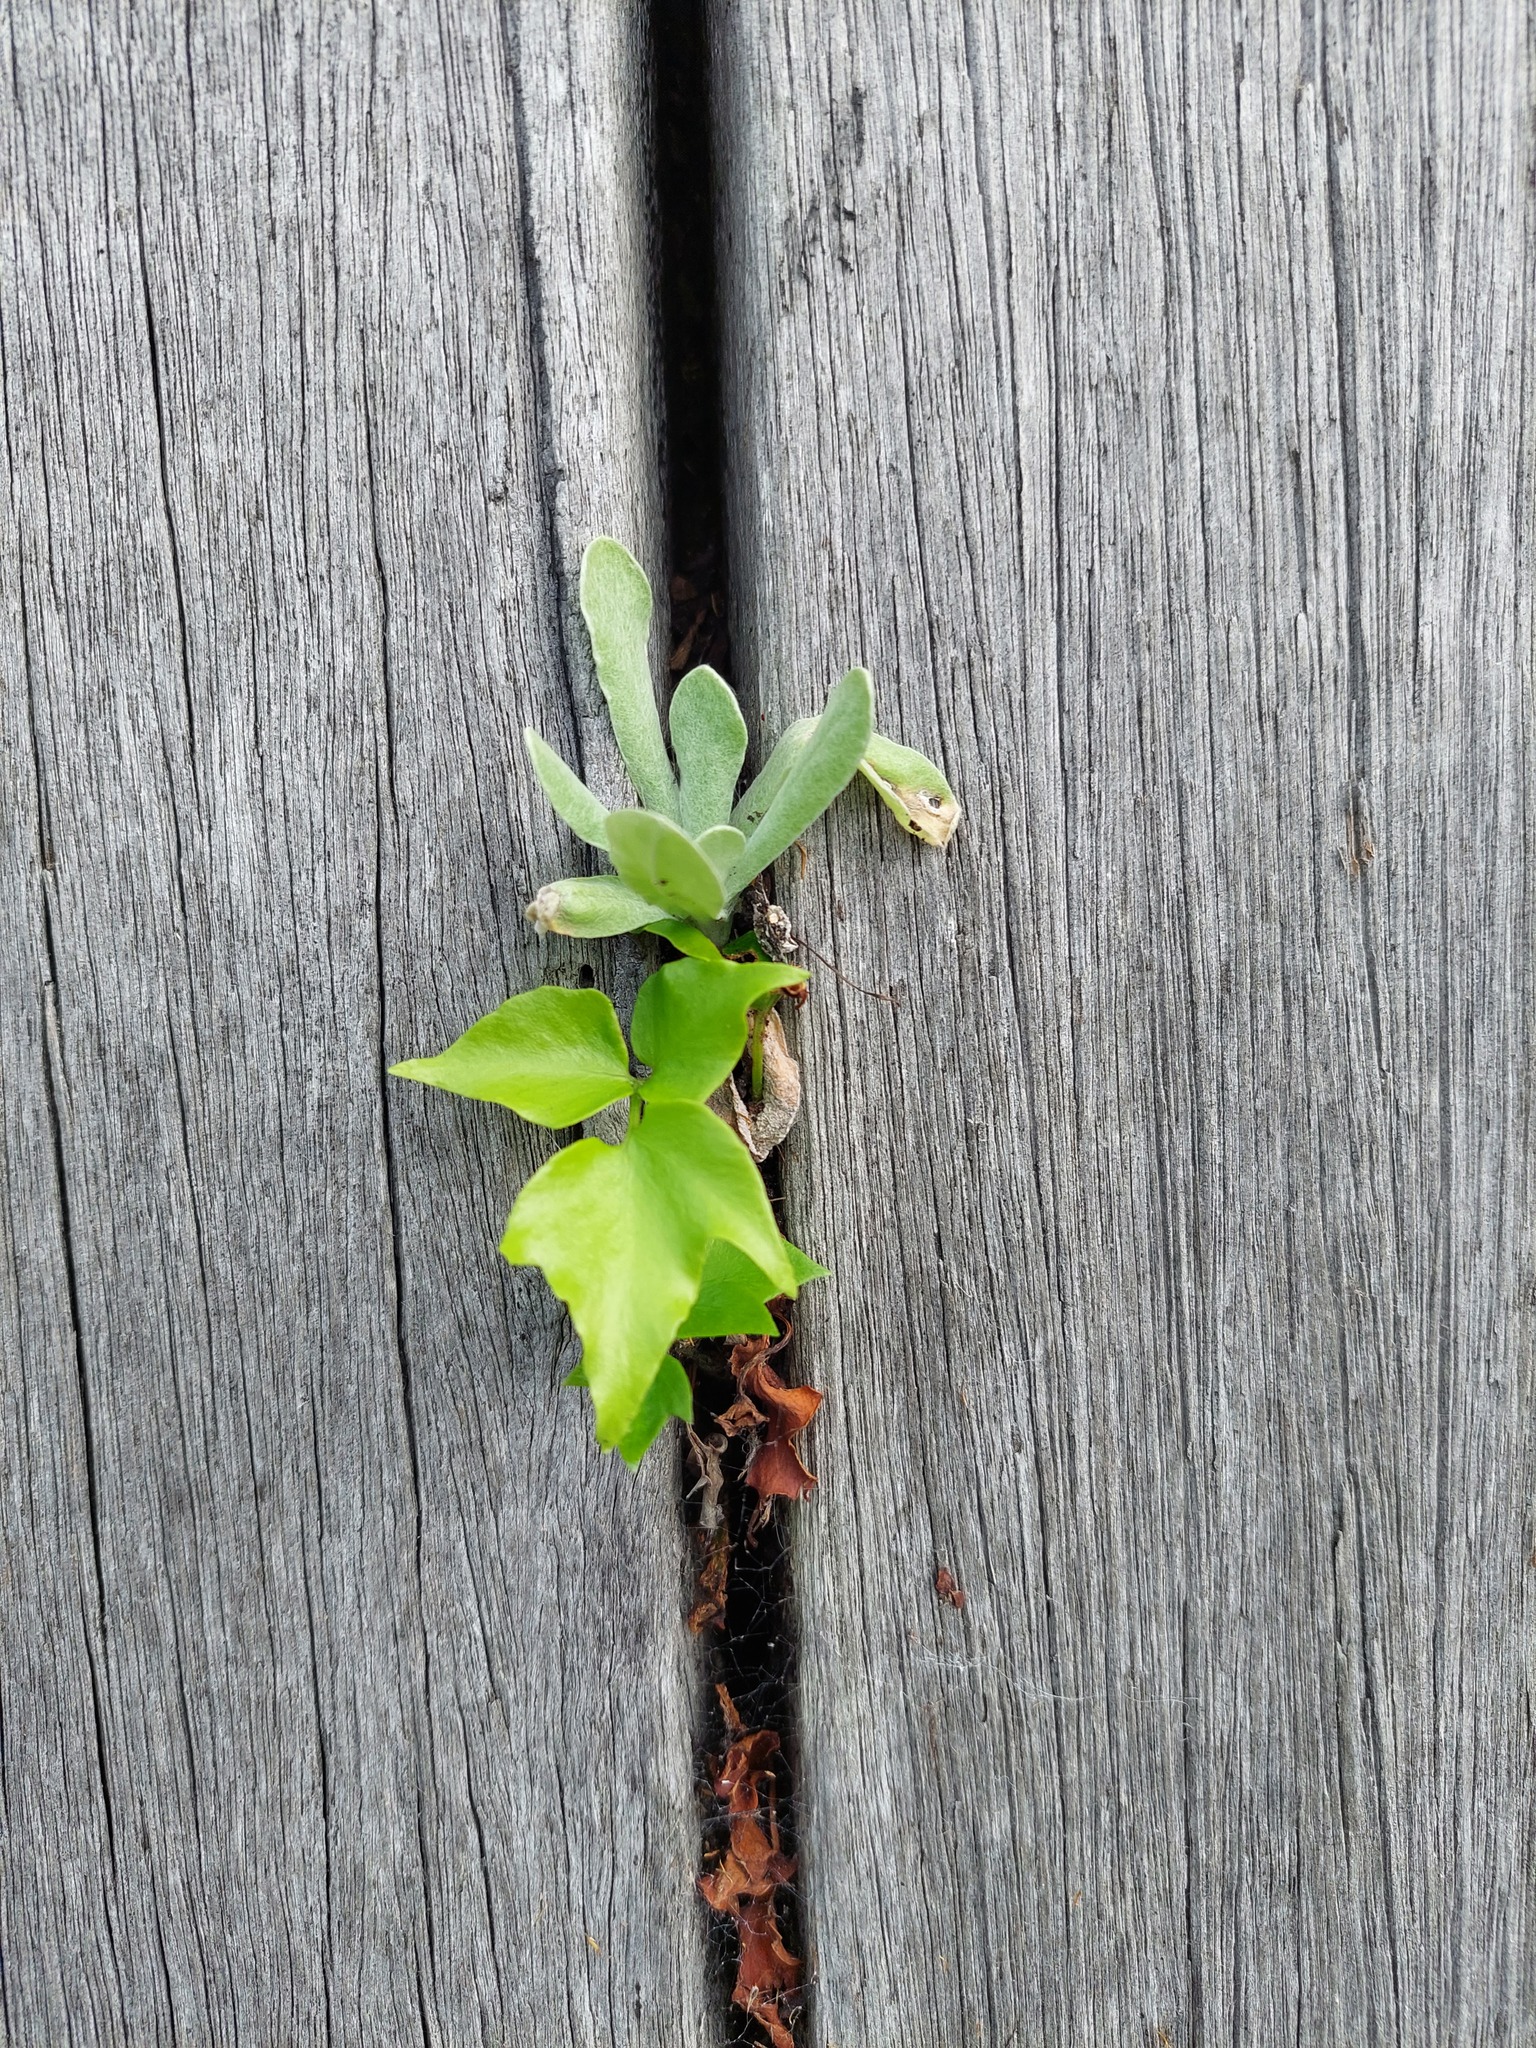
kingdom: Plantae
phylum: Tracheophyta
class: Polypodiopsida
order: Polypodiales
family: Dryopteridaceae
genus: Cyrtomium
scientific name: Cyrtomium falcatum
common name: House holly-fern
